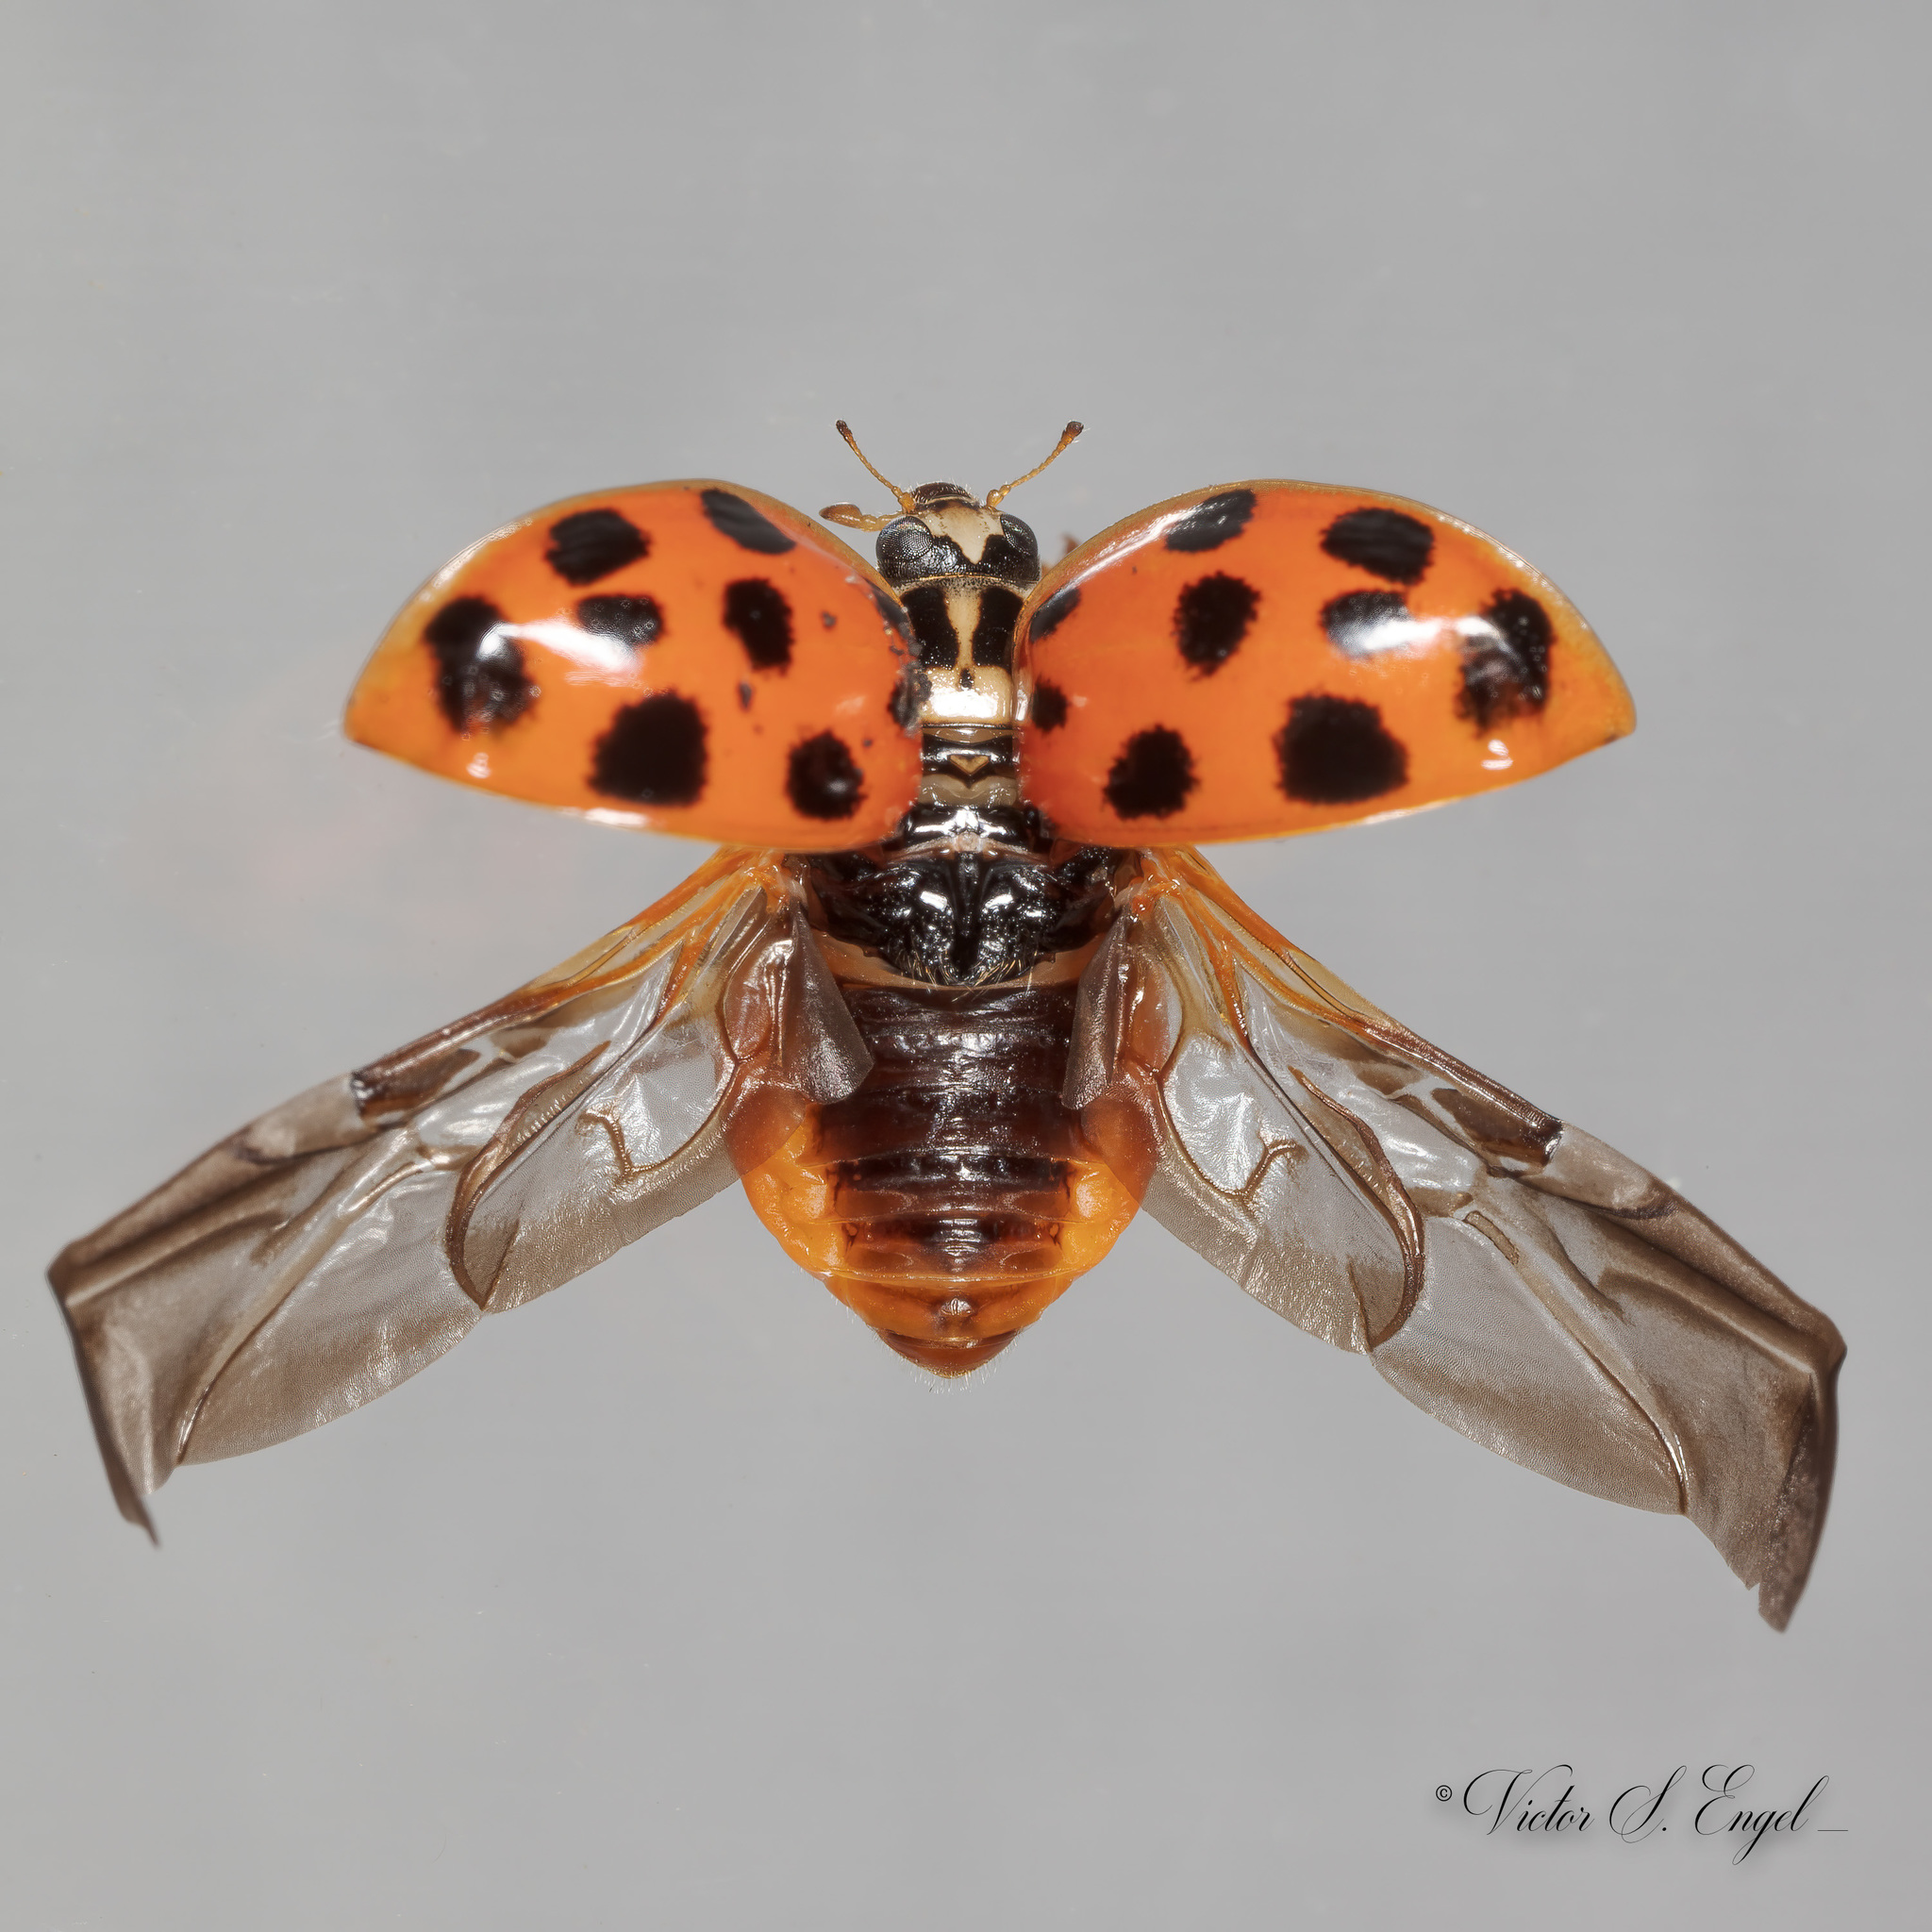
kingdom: Animalia
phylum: Arthropoda
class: Insecta
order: Coleoptera
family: Coccinellidae
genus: Harmonia
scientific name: Harmonia axyridis
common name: Harlequin ladybird
